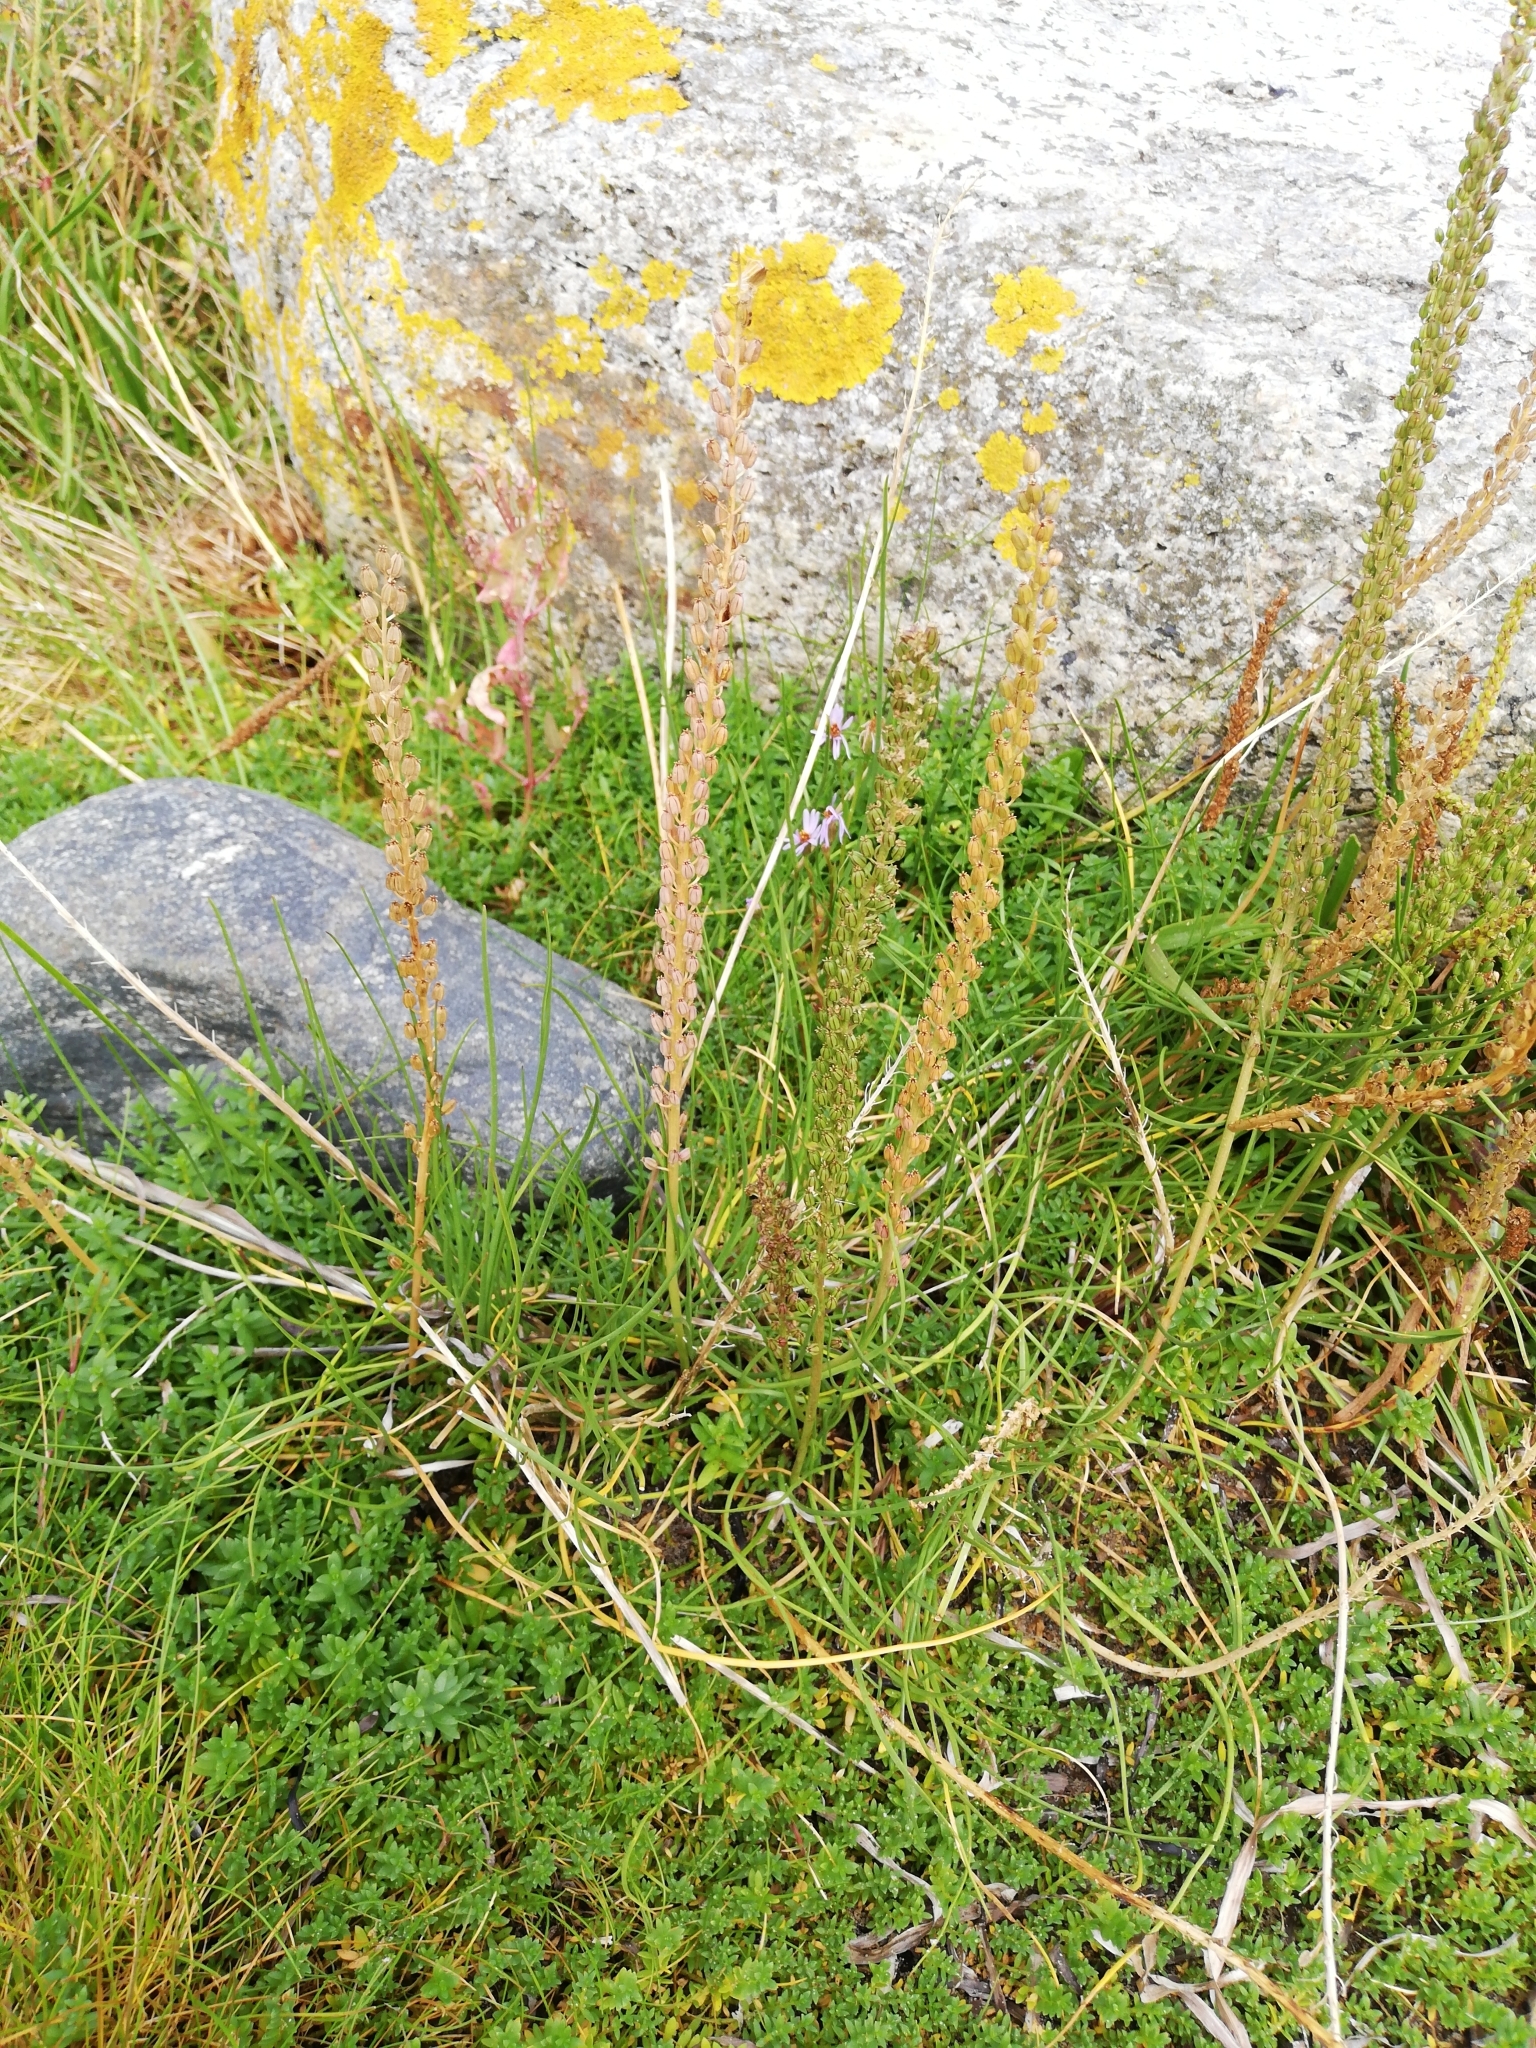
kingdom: Plantae
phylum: Tracheophyta
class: Liliopsida
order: Alismatales
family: Juncaginaceae
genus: Triglochin
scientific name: Triglochin maritima
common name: Sea arrowgrass
